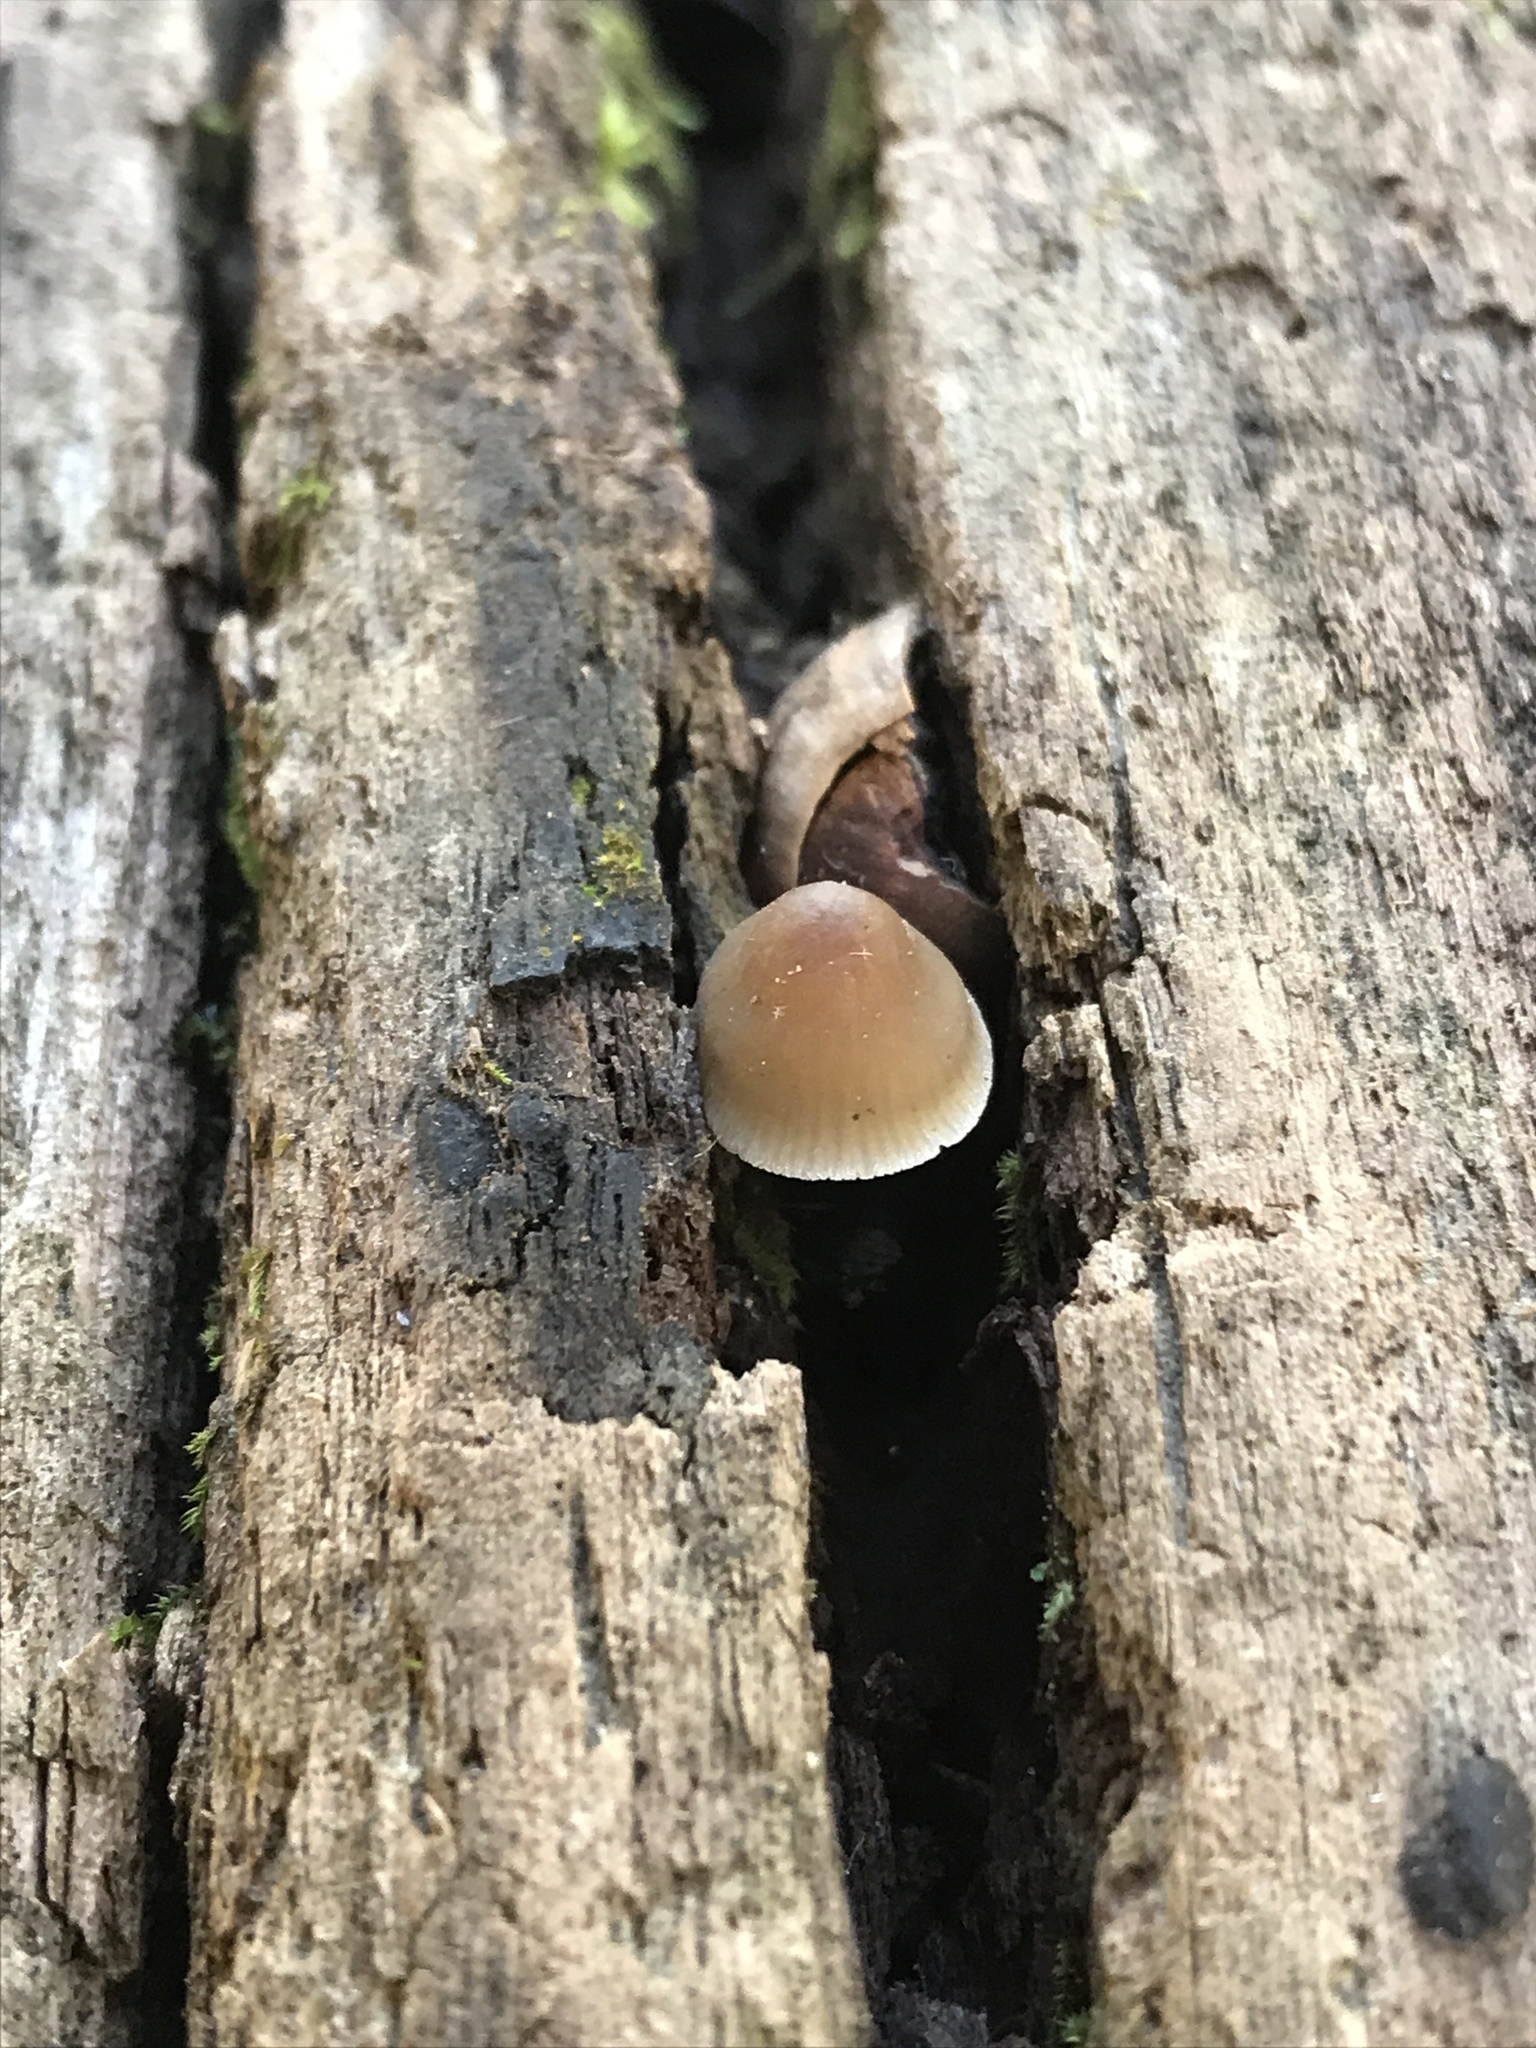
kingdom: Fungi
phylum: Basidiomycota
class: Agaricomycetes
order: Agaricales
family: Mycenaceae
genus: Mycena
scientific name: Mycena leptocephala
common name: Nitrous bonnet
